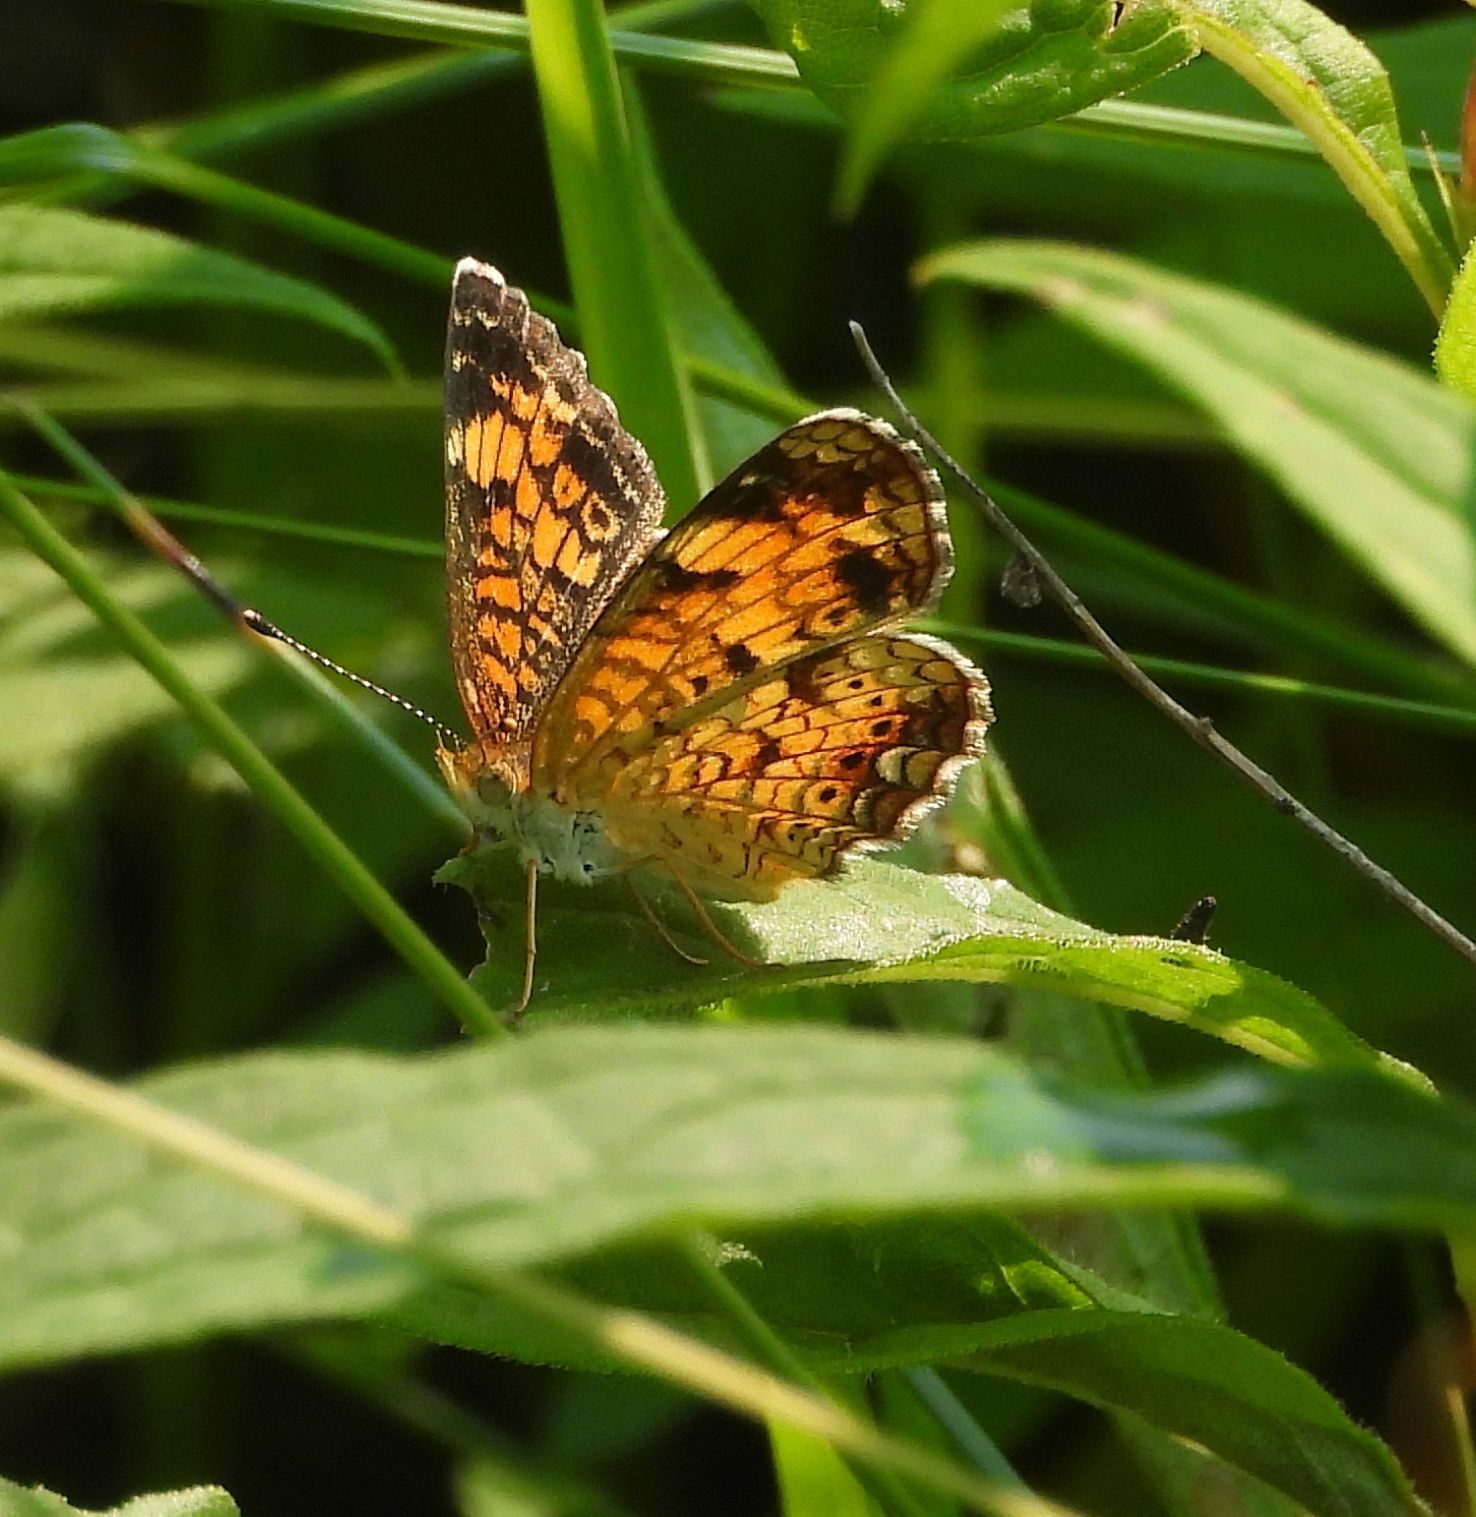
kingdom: Animalia
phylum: Arthropoda
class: Insecta
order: Lepidoptera
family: Nymphalidae
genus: Phyciodes
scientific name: Phyciodes tharos
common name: Pearl crescent
